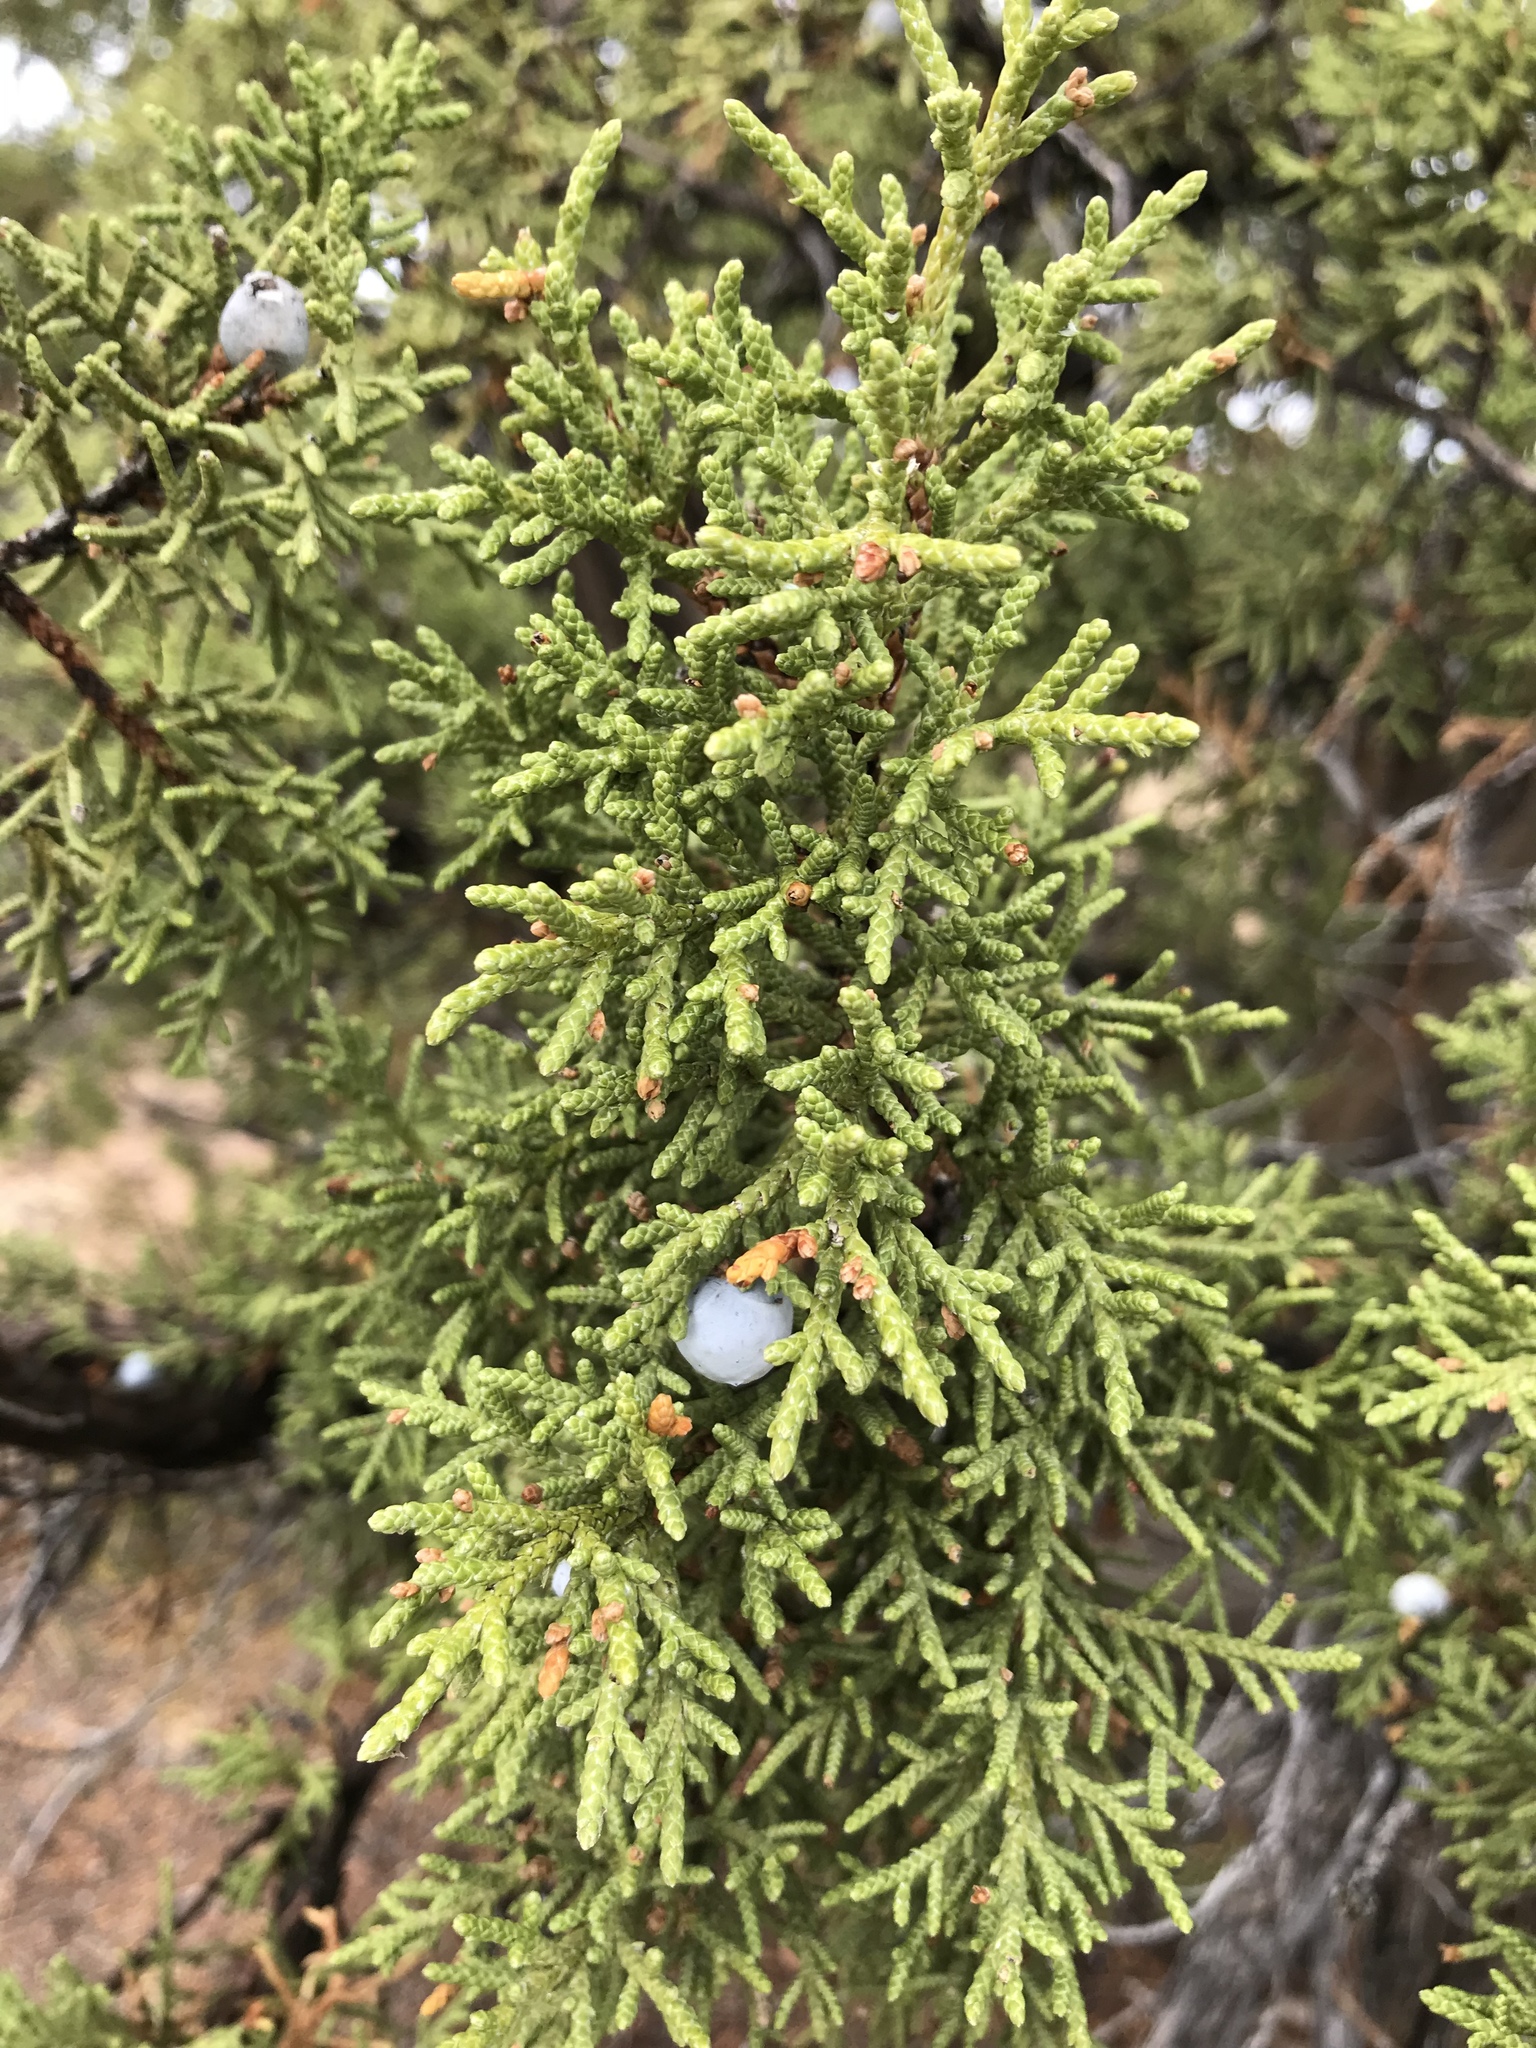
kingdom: Plantae
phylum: Tracheophyta
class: Pinopsida
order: Pinales
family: Cupressaceae
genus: Juniperus
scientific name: Juniperus osteosperma
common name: Utah juniper
